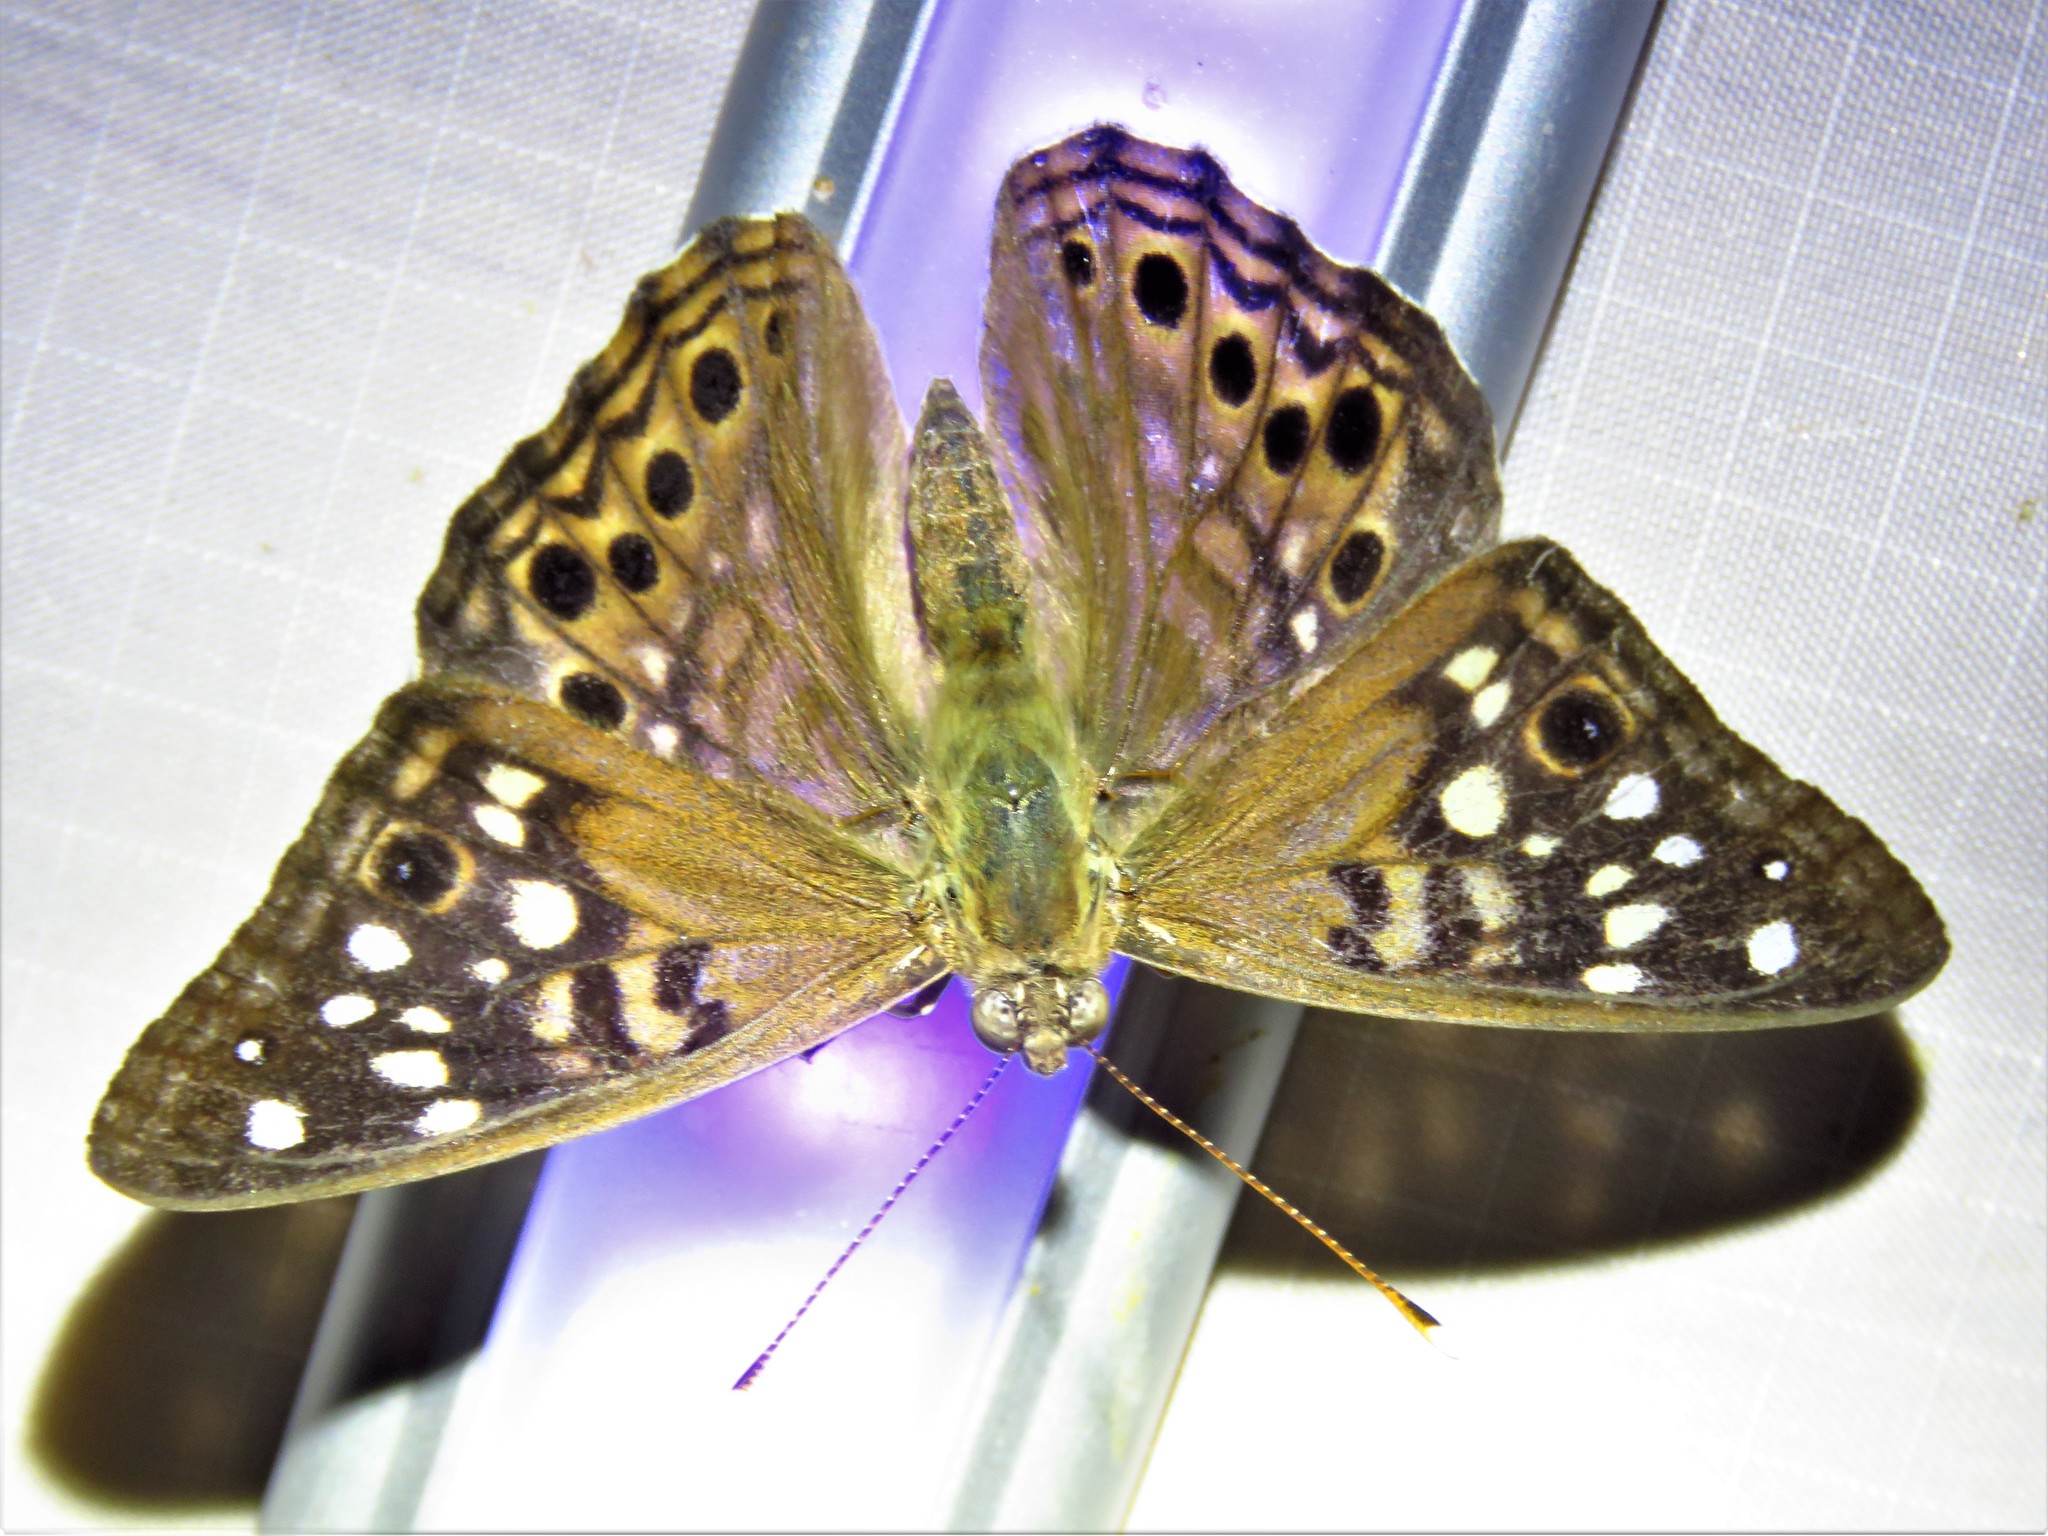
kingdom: Animalia
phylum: Arthropoda
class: Insecta
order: Lepidoptera
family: Nymphalidae
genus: Asterocampa
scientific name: Asterocampa celtis
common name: Hackberry emperor
